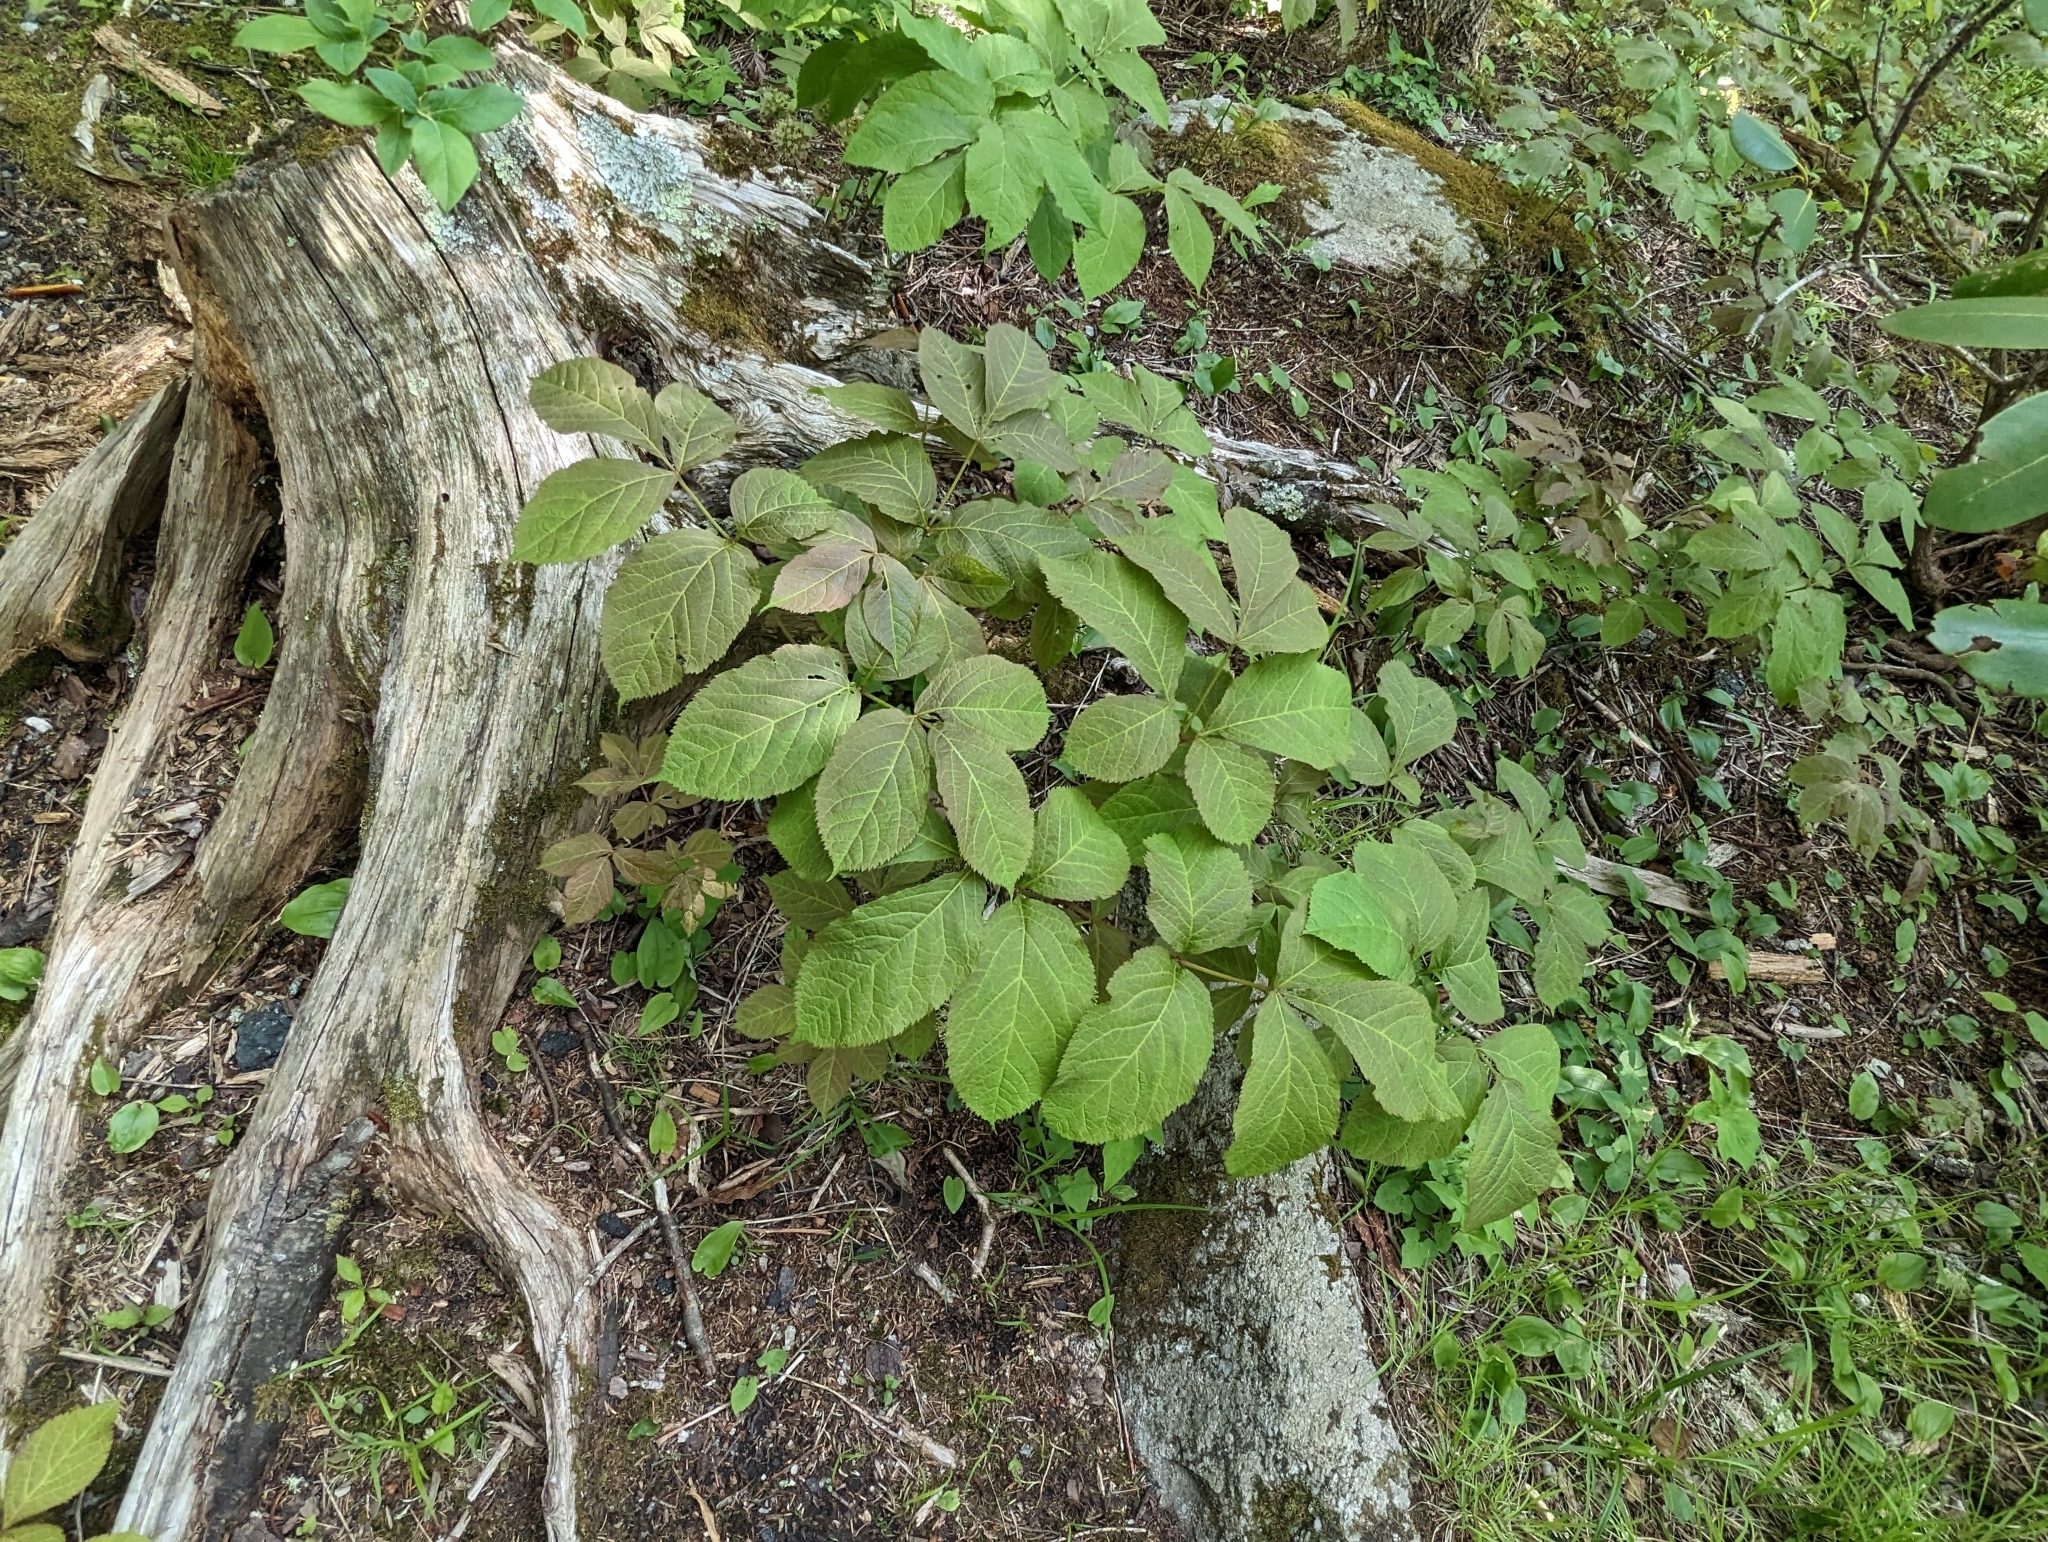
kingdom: Plantae
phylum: Tracheophyta
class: Magnoliopsida
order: Apiales
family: Araliaceae
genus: Aralia
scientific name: Aralia nudicaulis
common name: Wild sarsaparilla
